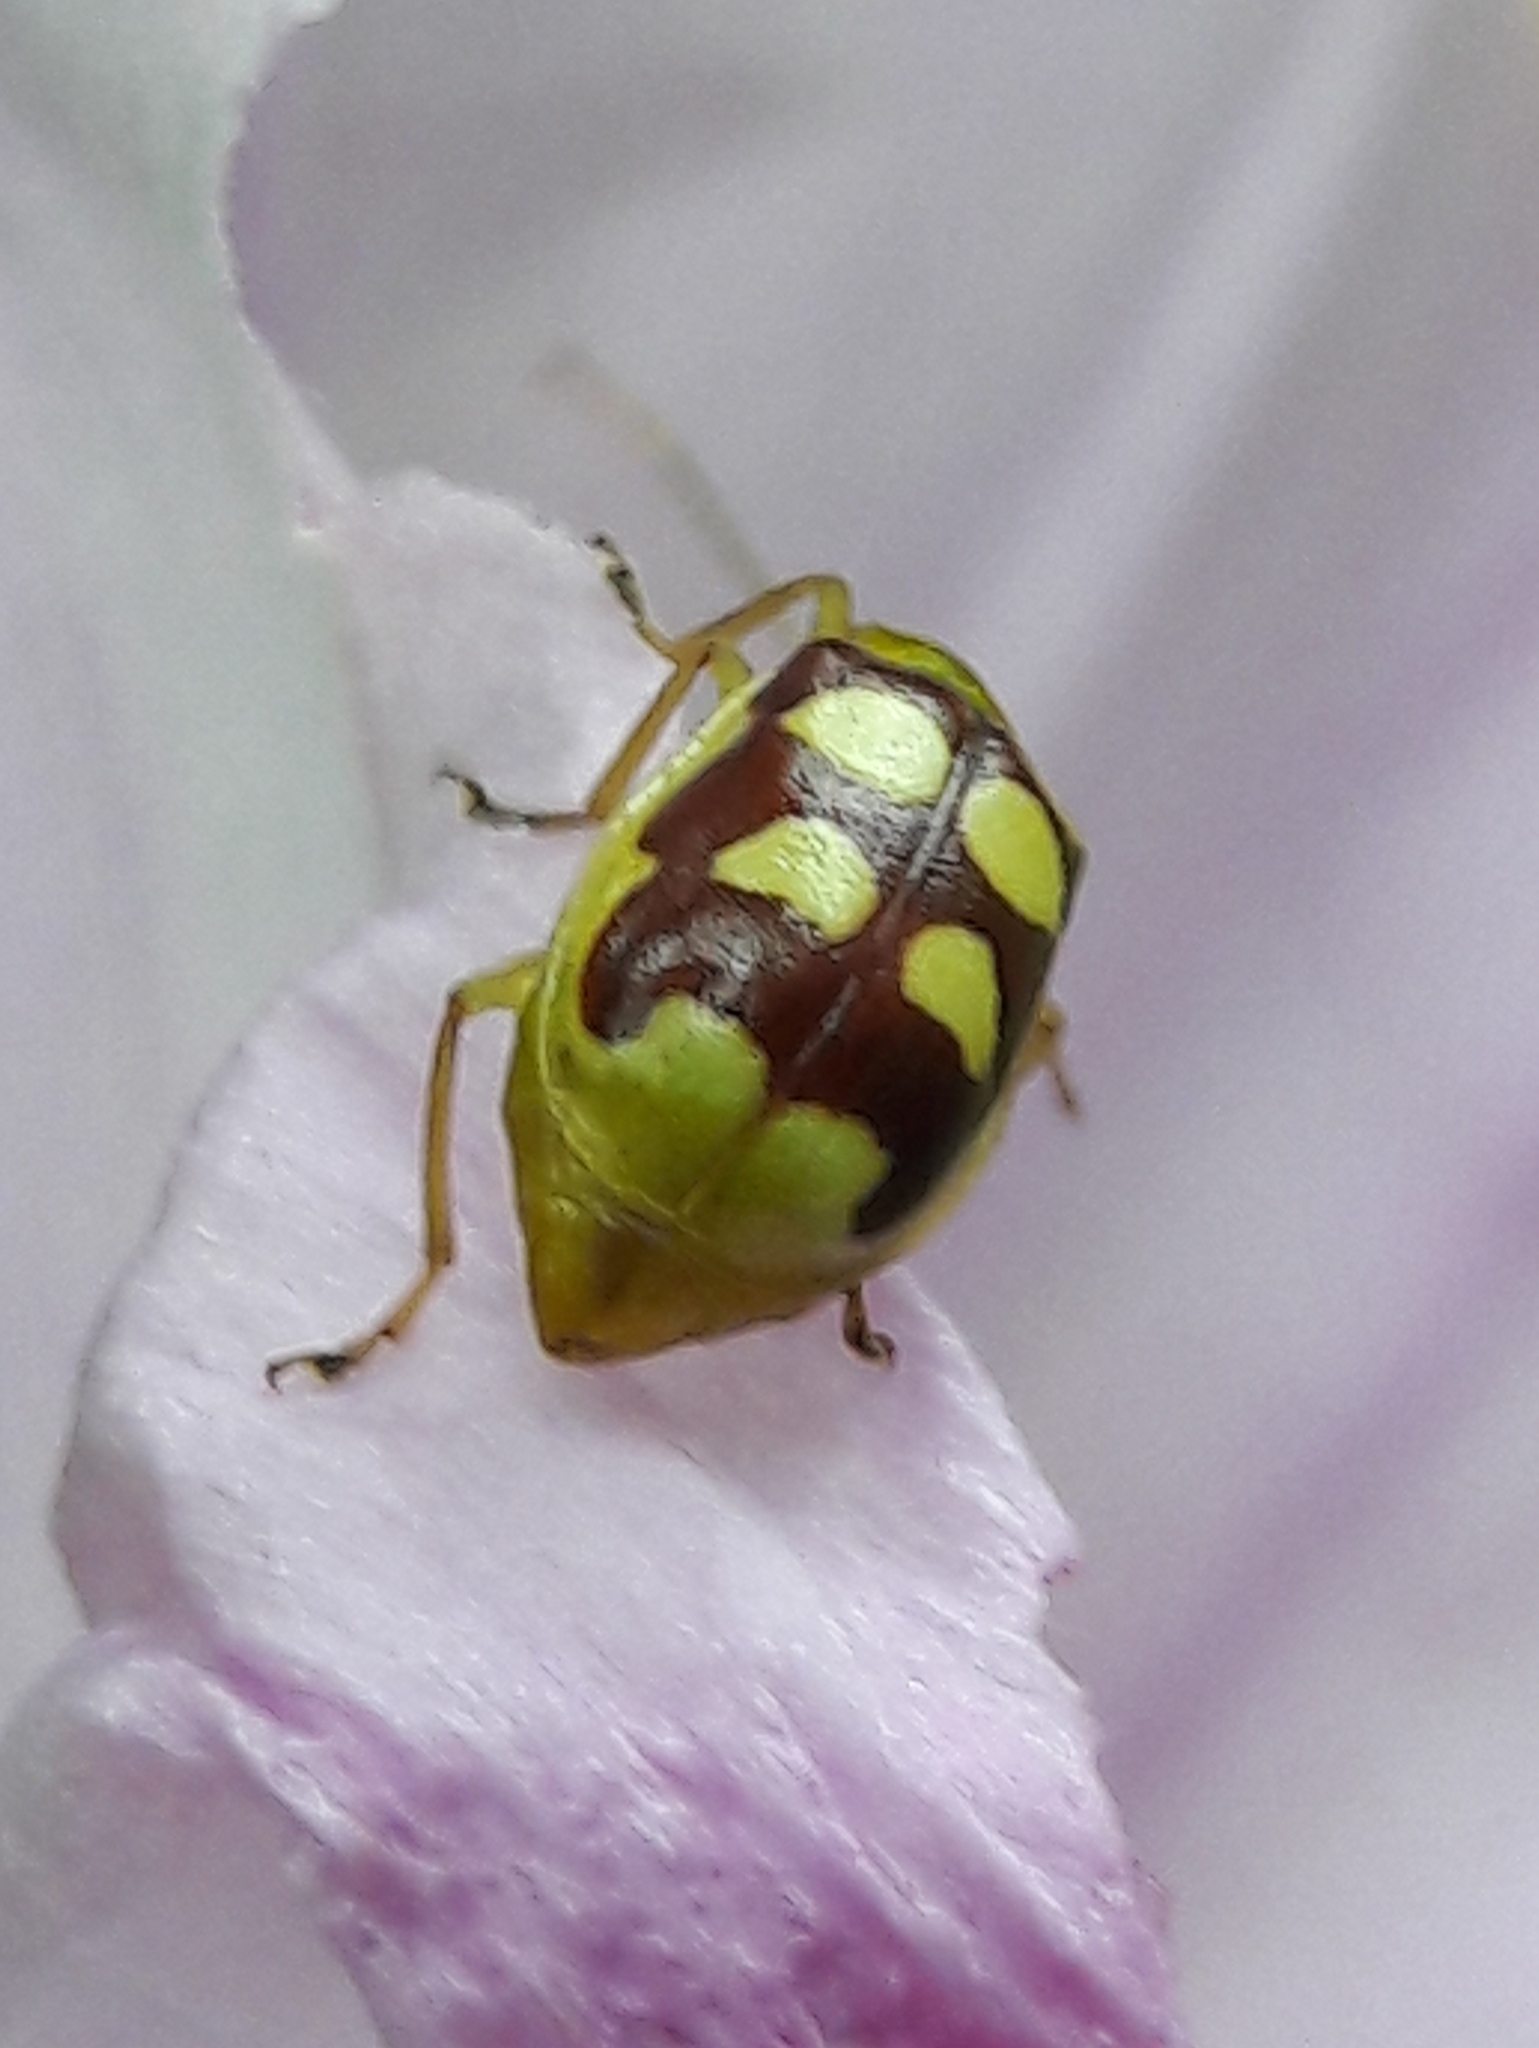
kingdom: Animalia
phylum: Arthropoda
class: Insecta
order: Coleoptera
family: Chrysomelidae
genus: Basiprionota
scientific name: Basiprionota sinuata
